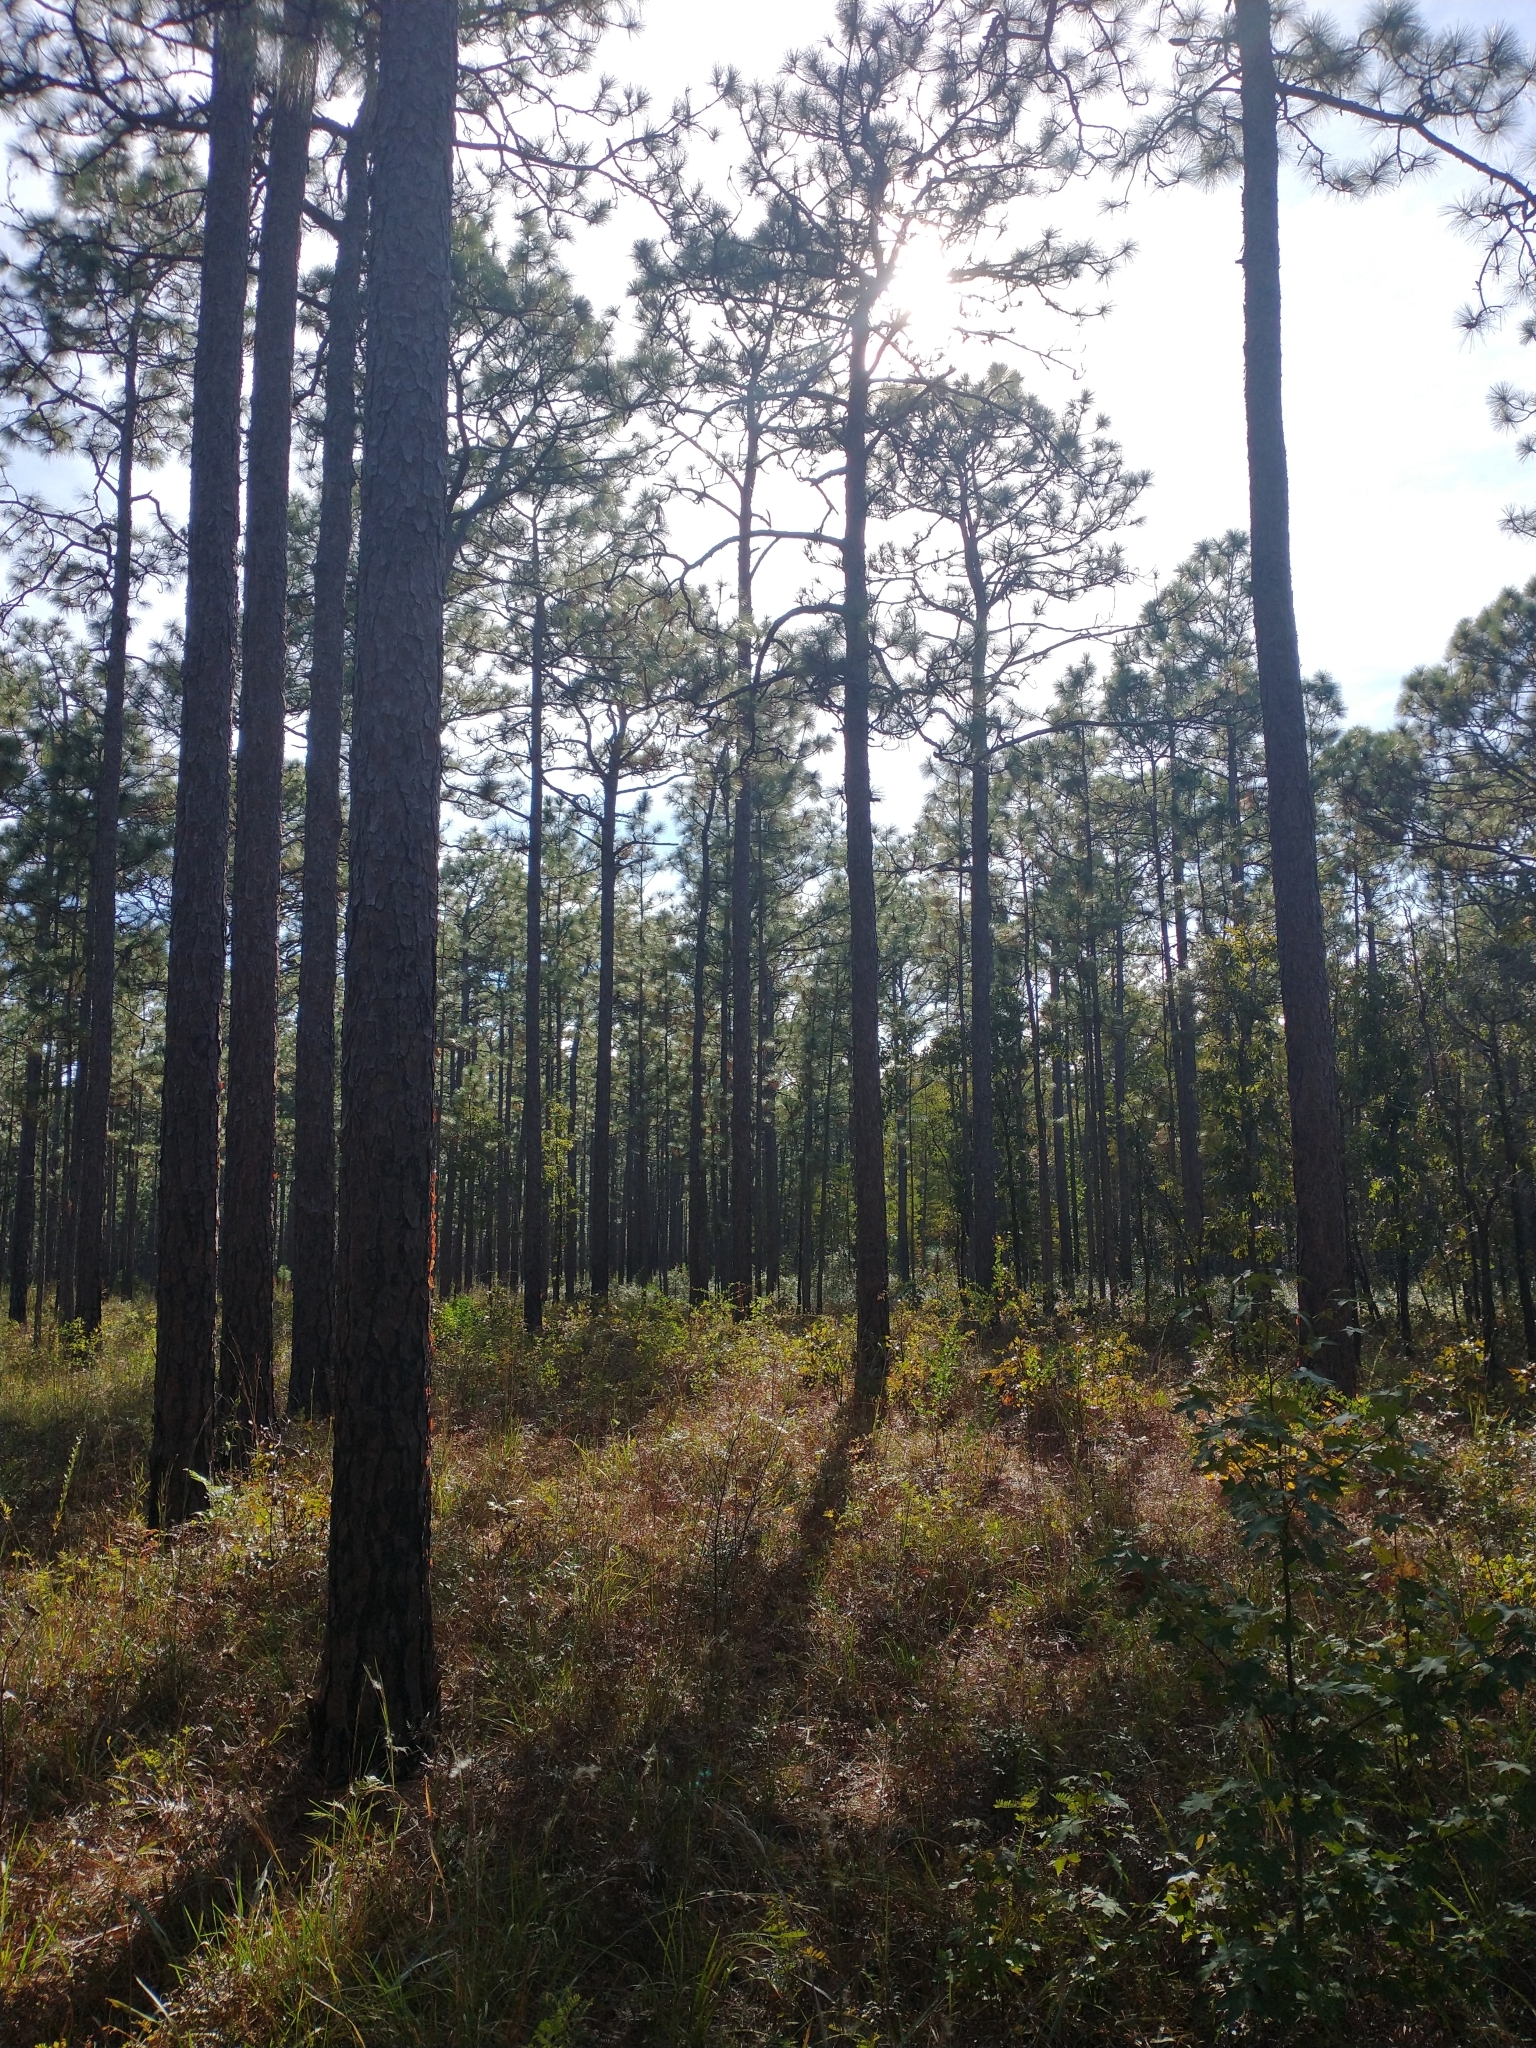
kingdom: Plantae
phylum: Tracheophyta
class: Pinopsida
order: Pinales
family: Pinaceae
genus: Pinus
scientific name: Pinus palustris
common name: Longleaf pine
